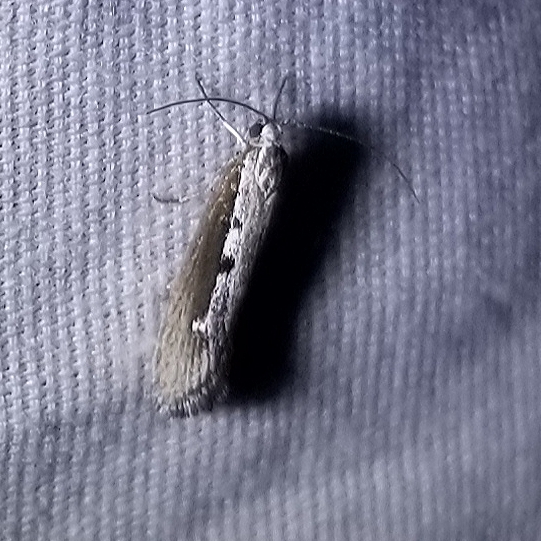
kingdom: Animalia
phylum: Arthropoda
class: Insecta
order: Lepidoptera
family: Ethmiidae
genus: Ethmia
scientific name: Ethmia epileuca
